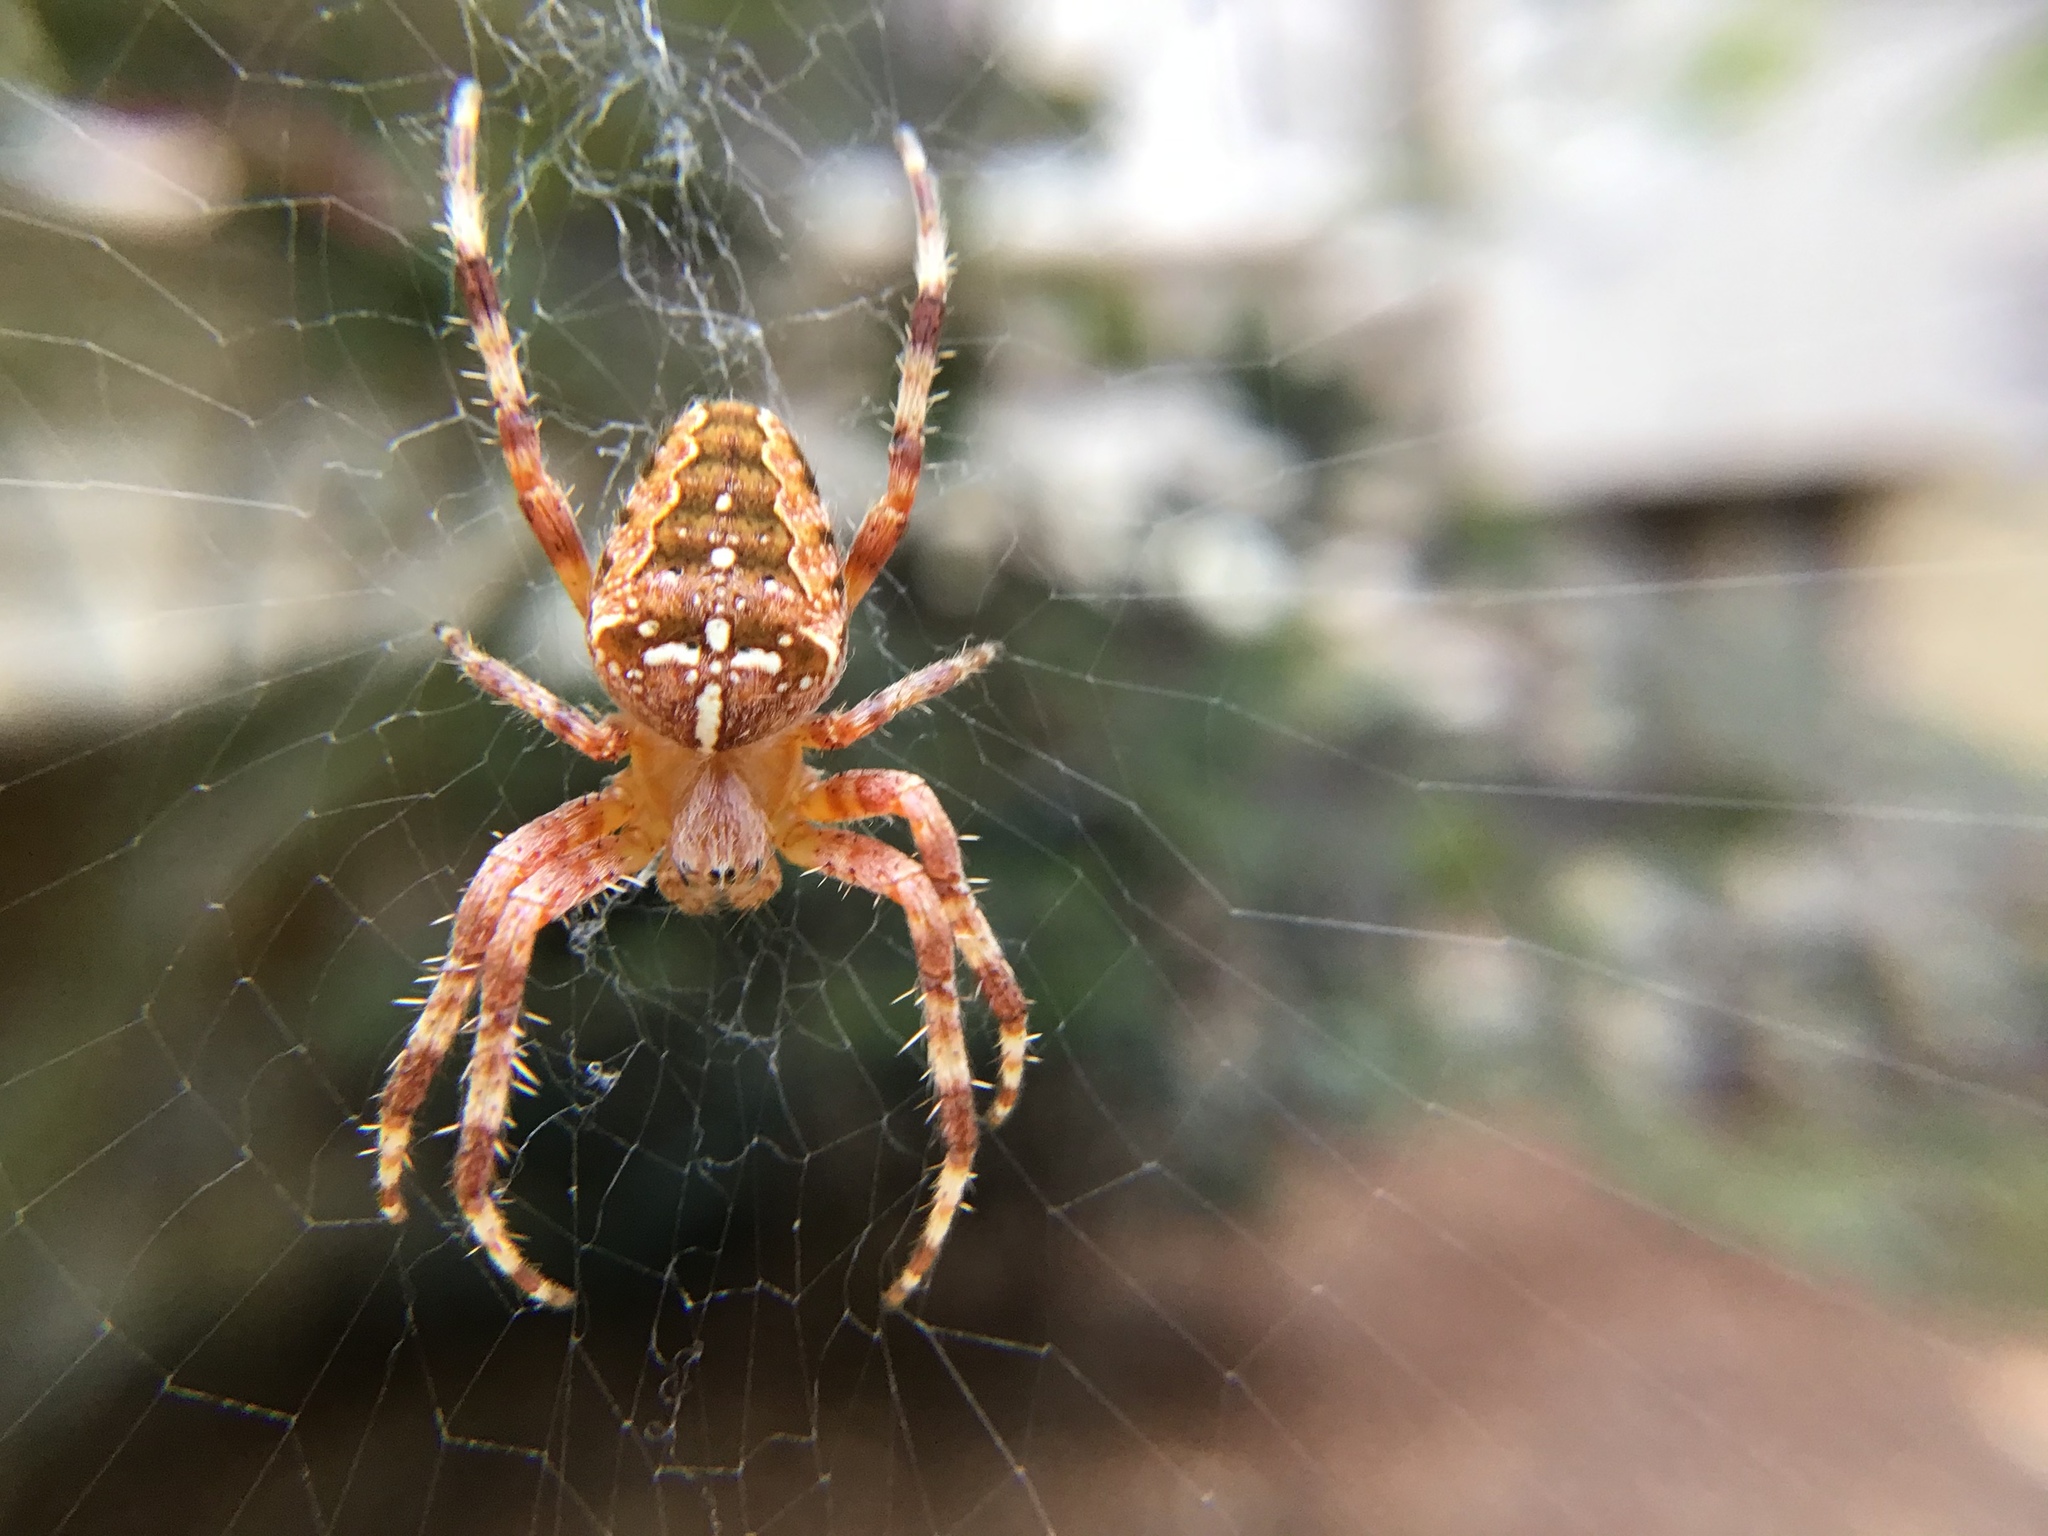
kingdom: Animalia
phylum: Arthropoda
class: Arachnida
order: Araneae
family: Araneidae
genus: Araneus
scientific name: Araneus diadematus
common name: Cross orbweaver
